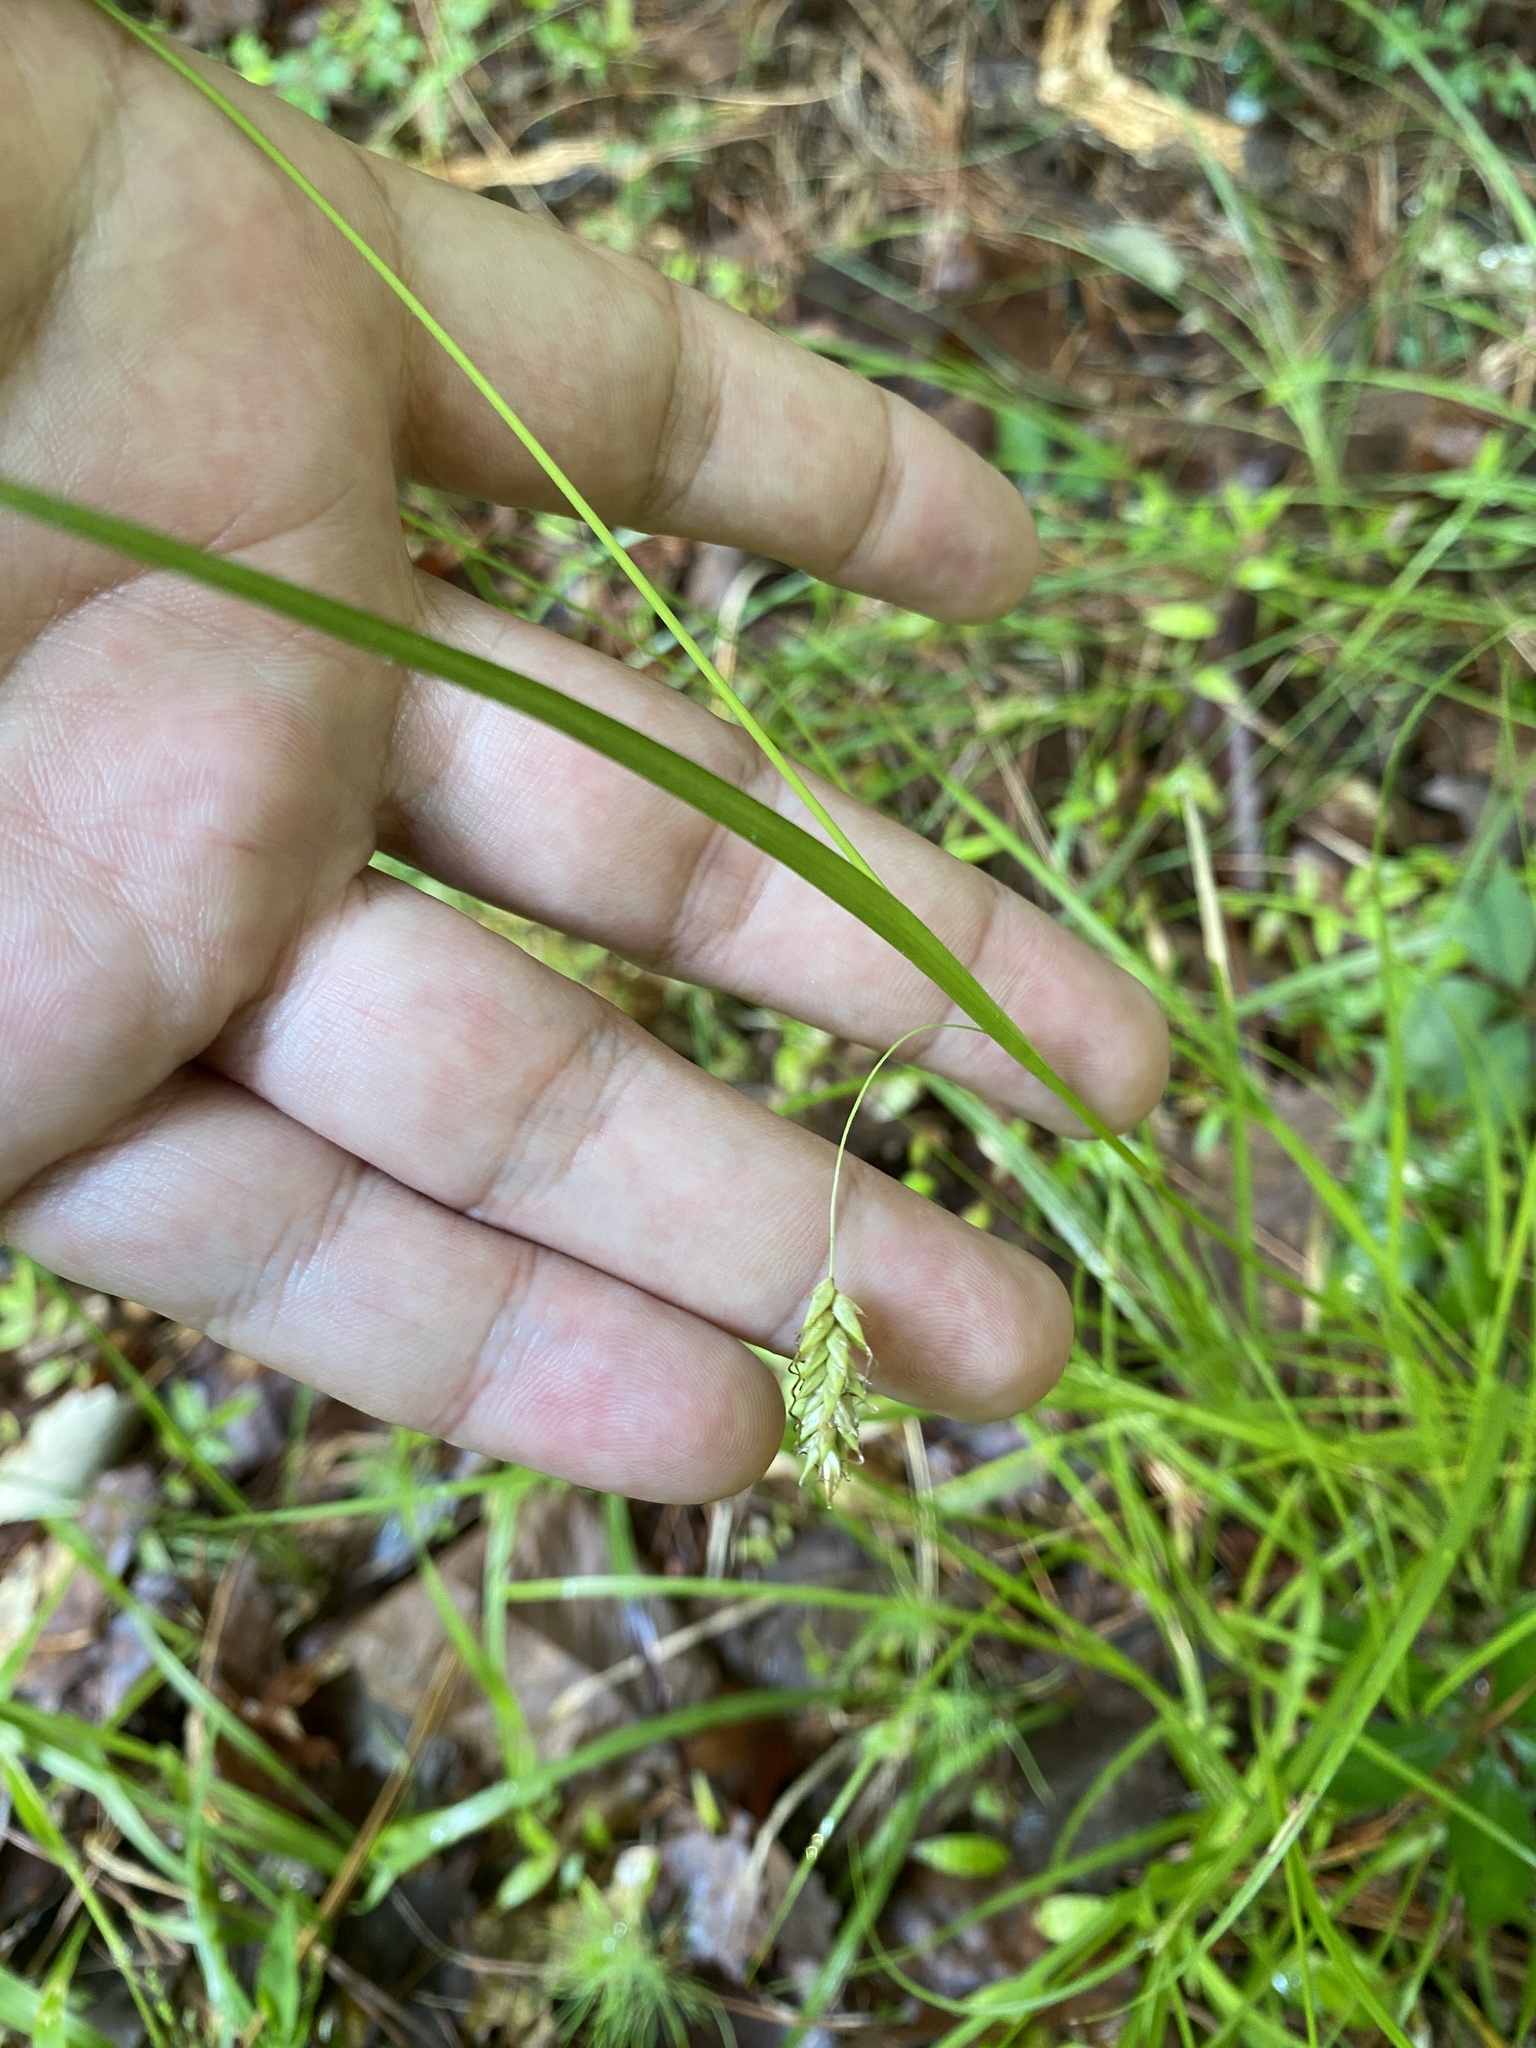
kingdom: Plantae
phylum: Tracheophyta
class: Liliopsida
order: Poales
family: Cyperaceae
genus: Carex
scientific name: Carex cherokeensis
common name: Cherokee sedge
